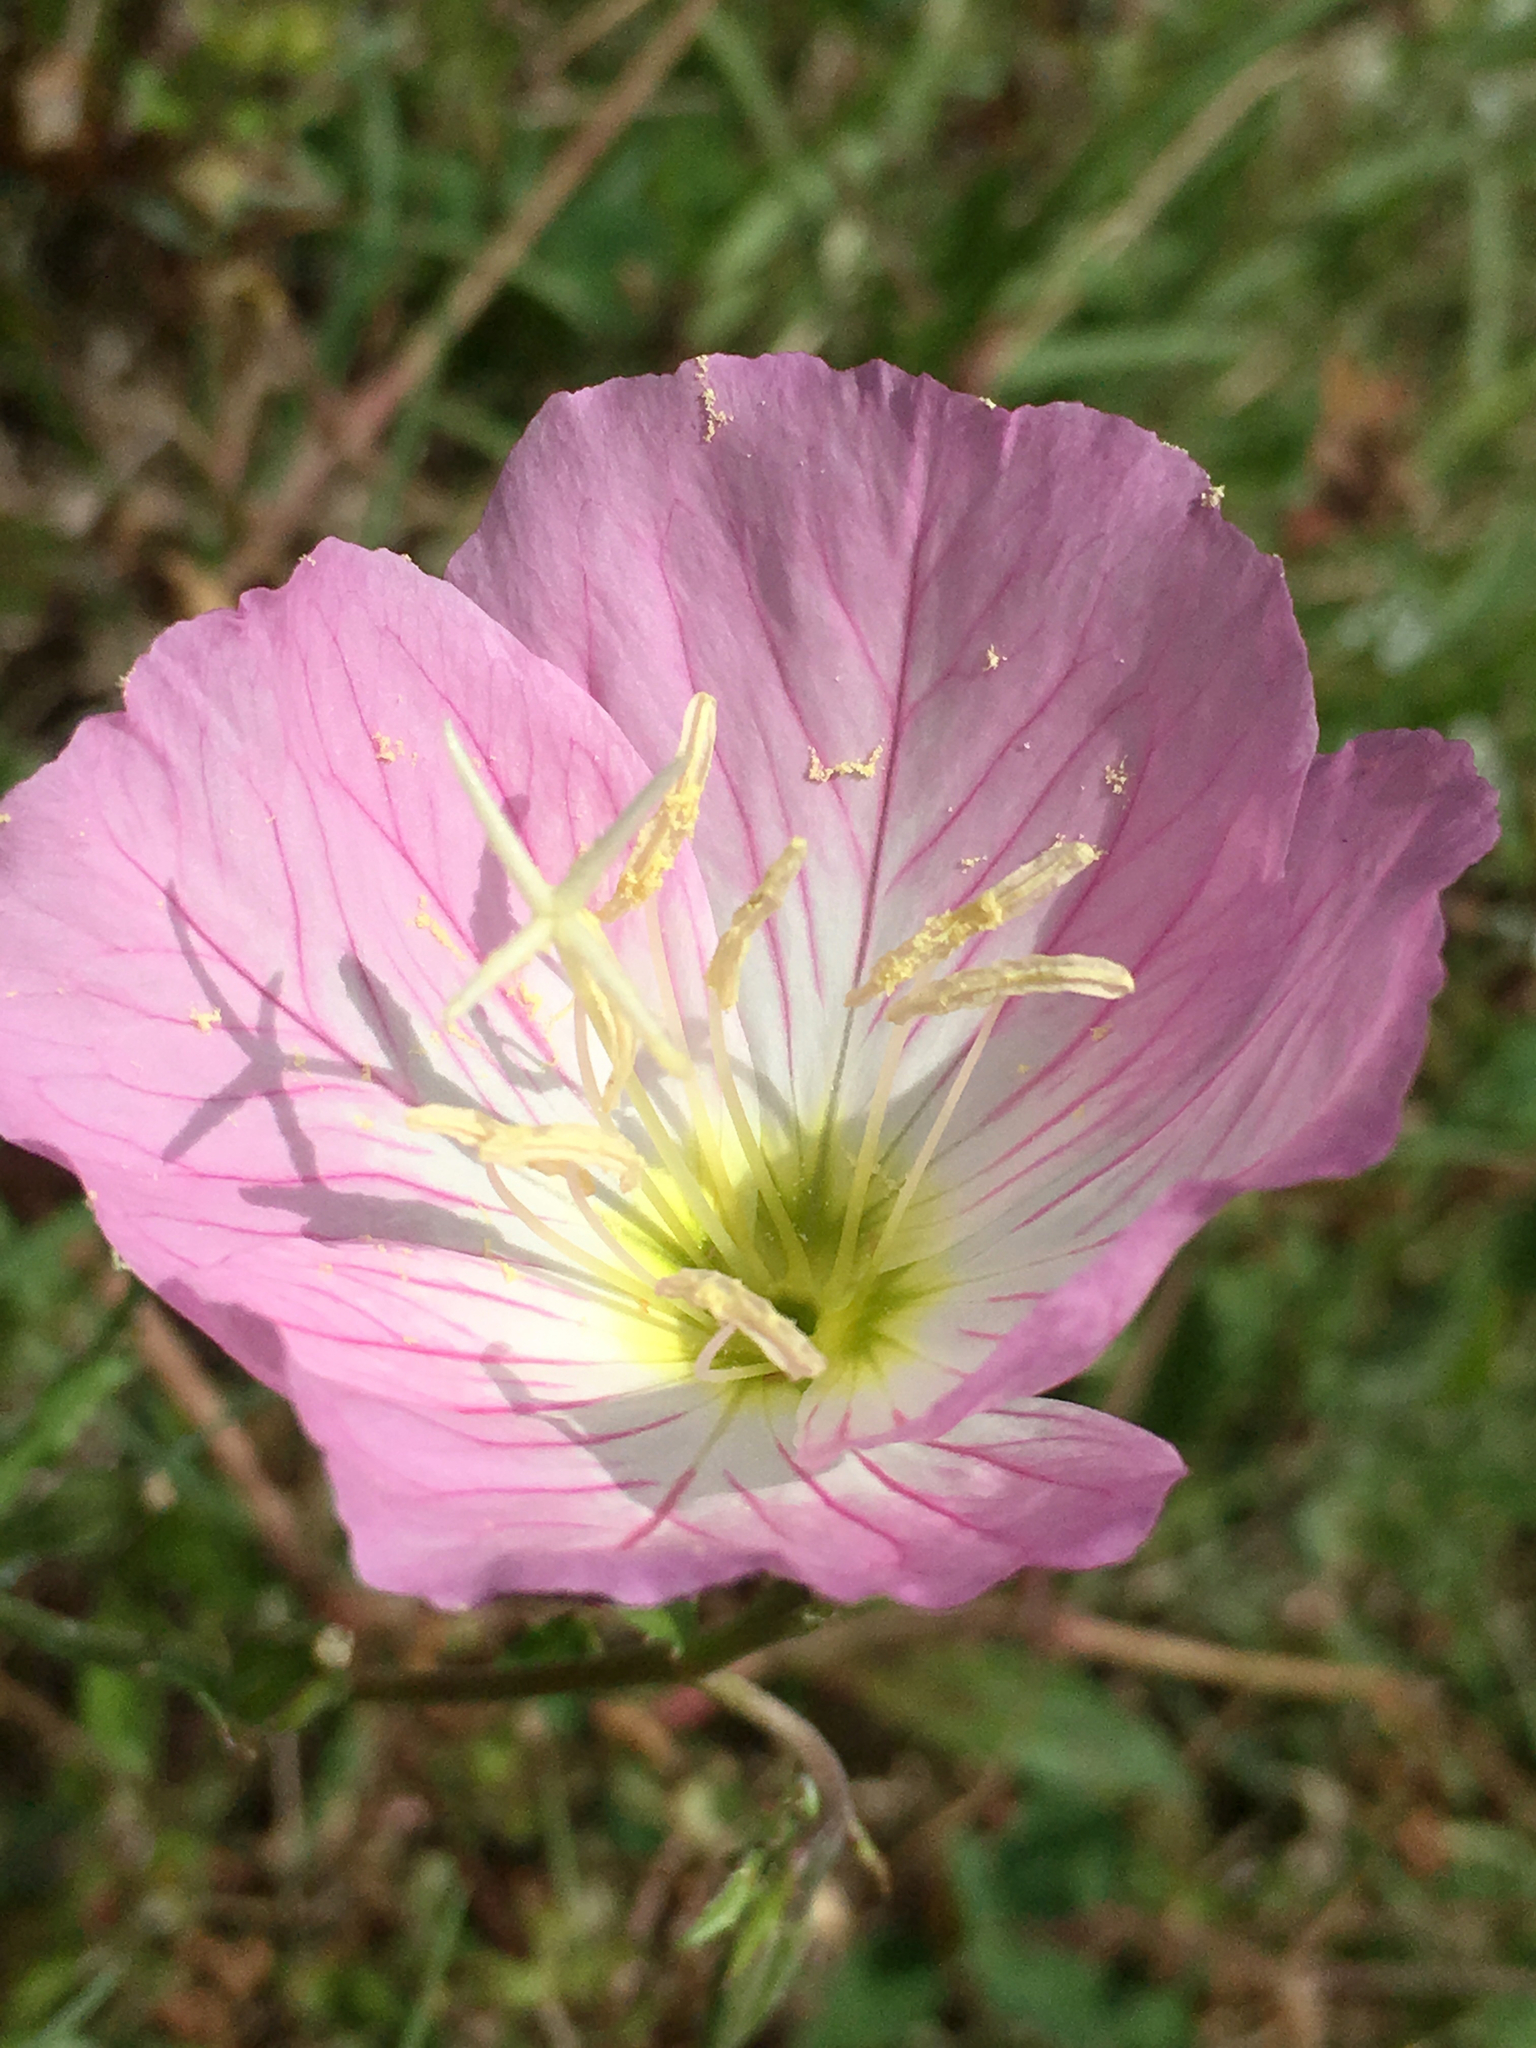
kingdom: Plantae
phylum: Tracheophyta
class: Magnoliopsida
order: Myrtales
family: Onagraceae
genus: Oenothera
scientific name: Oenothera speciosa
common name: White evening-primrose
